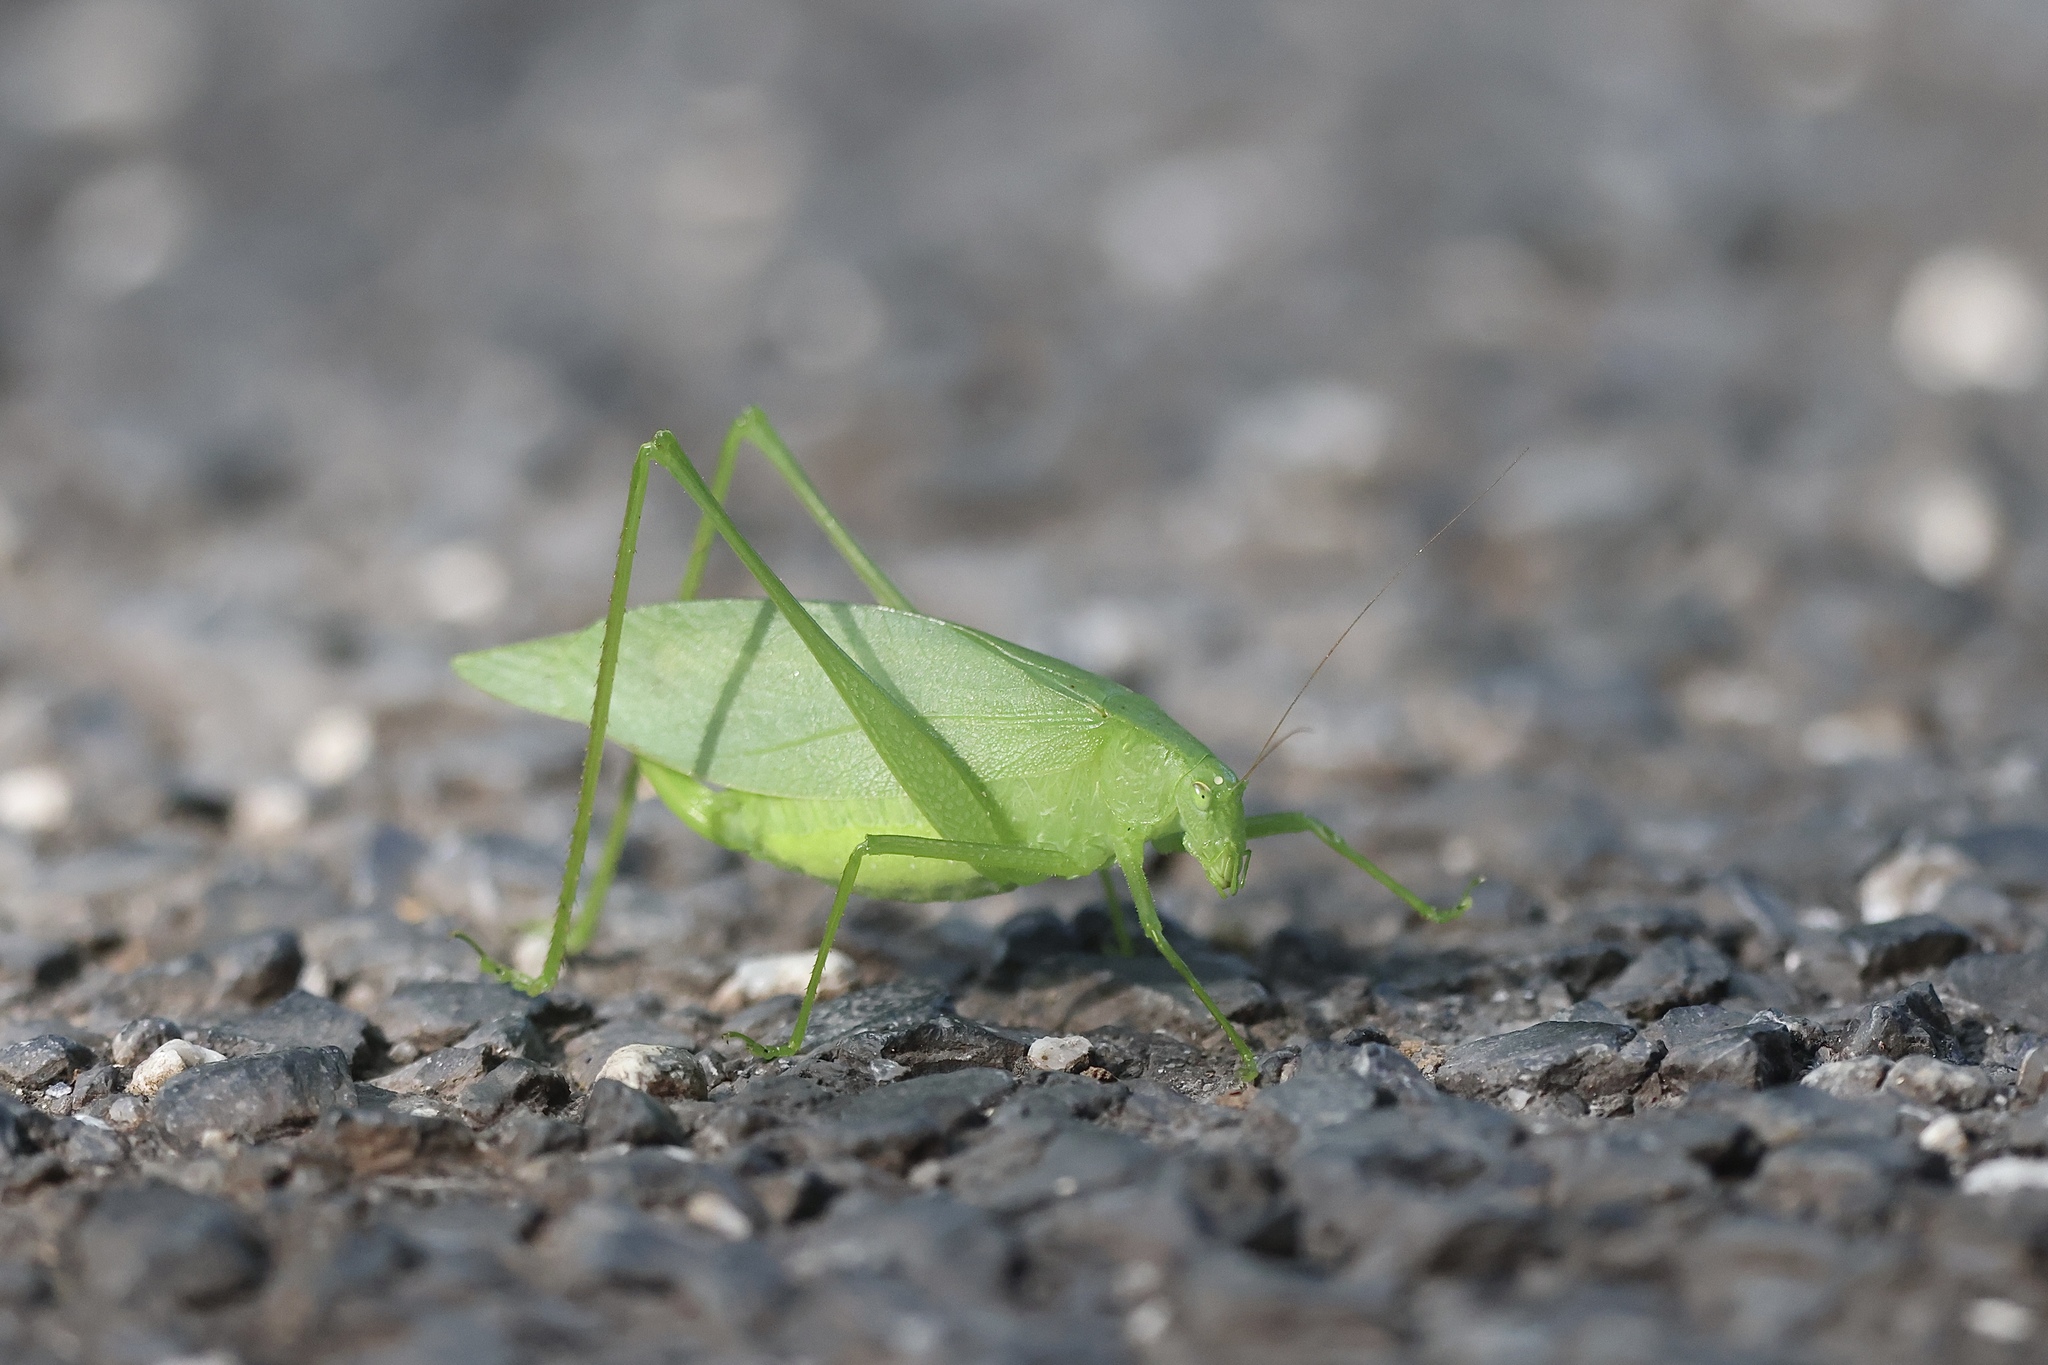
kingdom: Animalia
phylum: Arthropoda
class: Insecta
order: Orthoptera
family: Tettigoniidae
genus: Amblycorypha
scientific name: Amblycorypha oblongifolia
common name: Oblong-winged katydid
